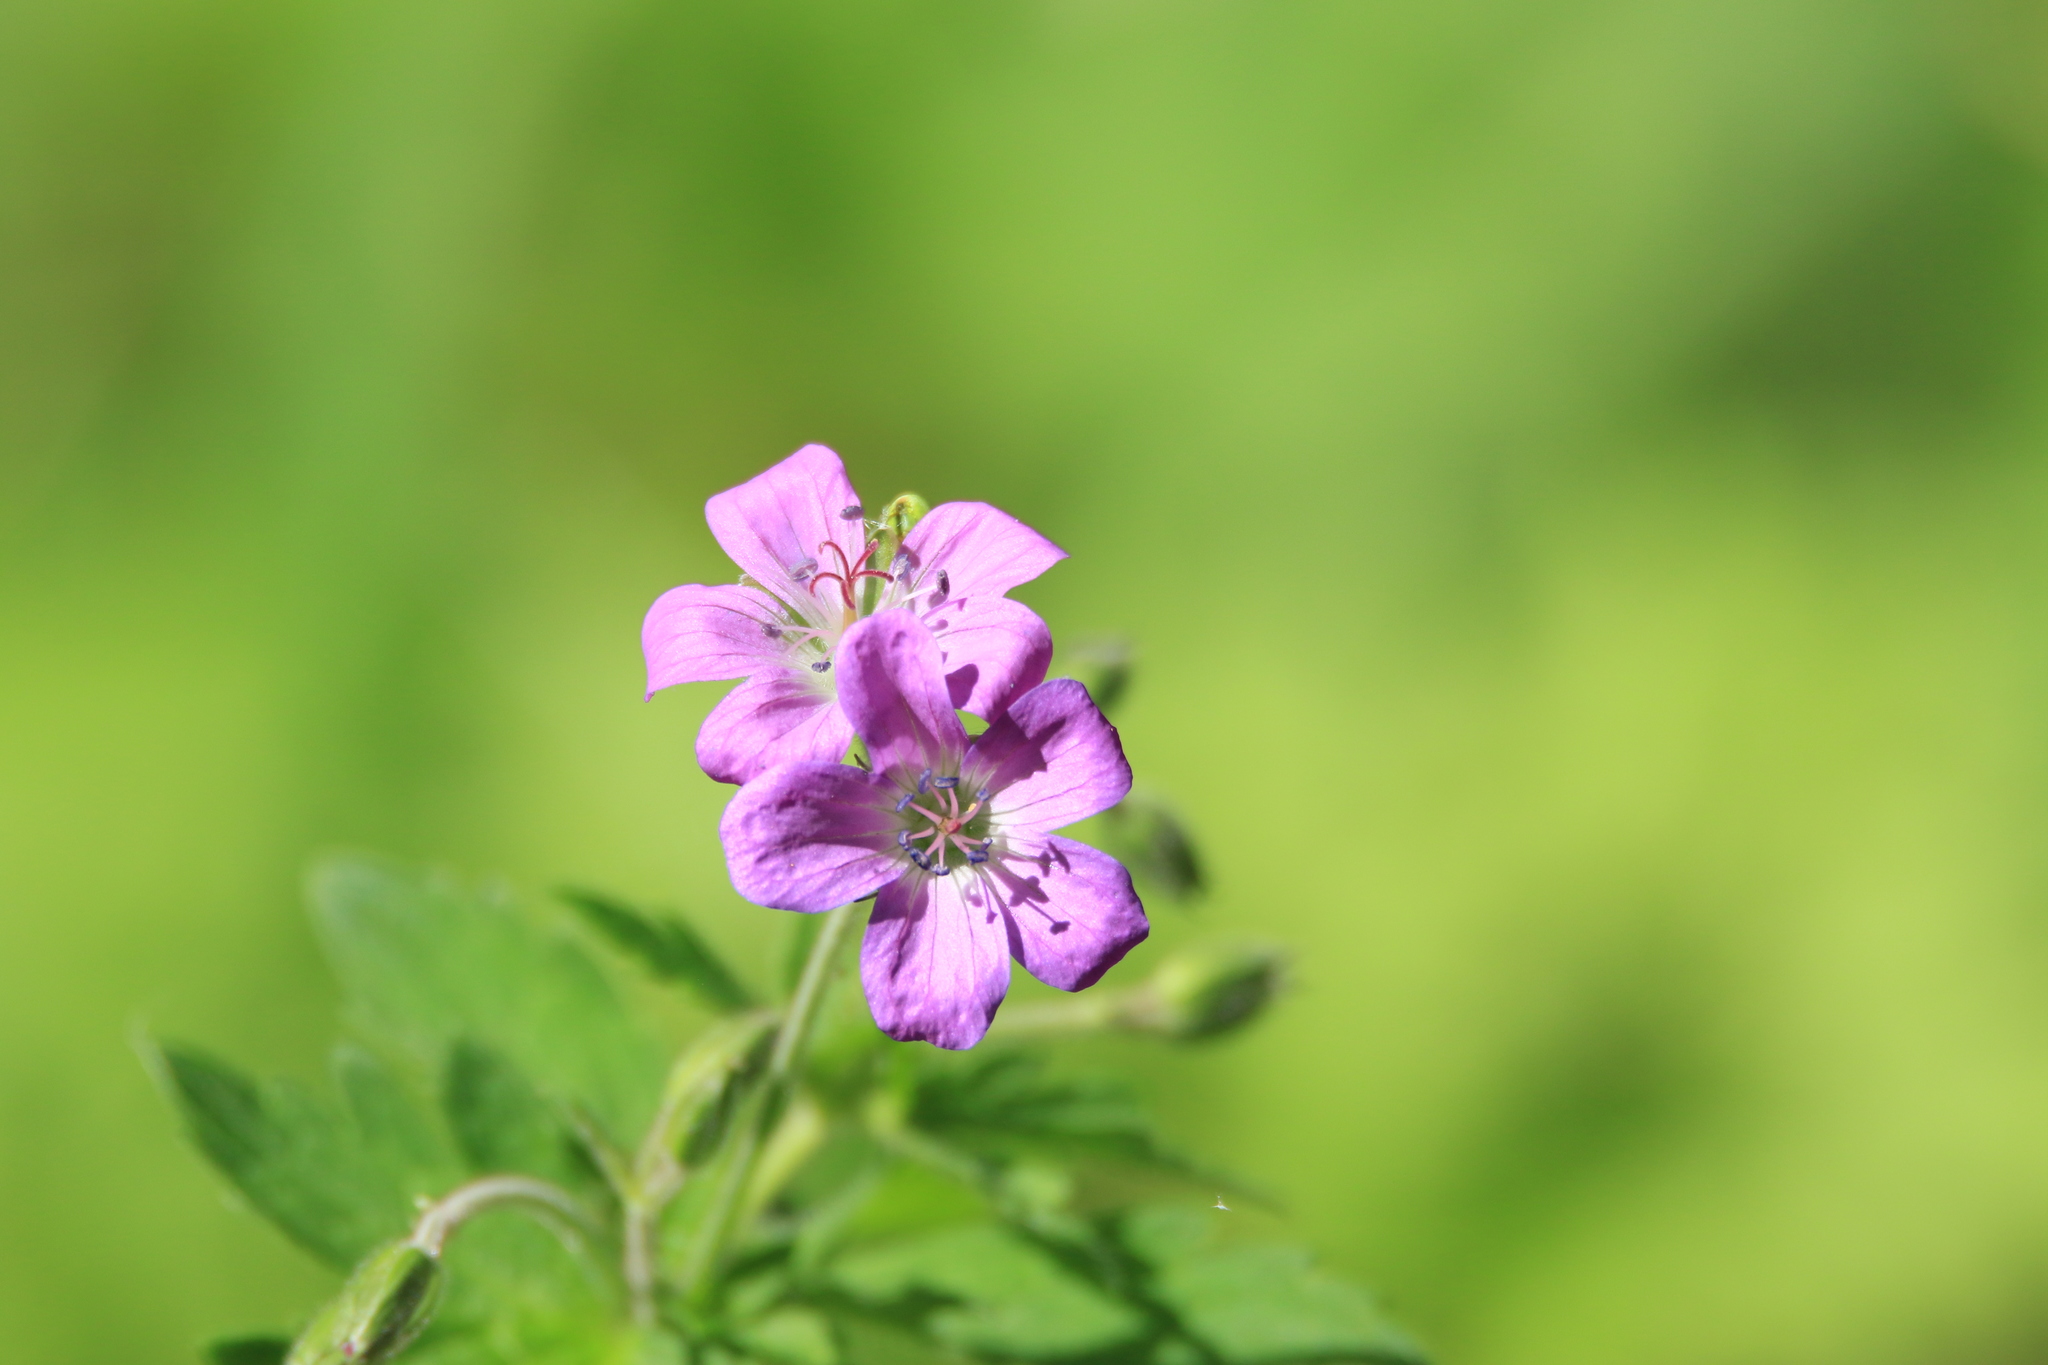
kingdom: Plantae
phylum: Tracheophyta
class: Magnoliopsida
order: Geraniales
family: Geraniaceae
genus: Geranium
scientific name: Geranium sylvaticum
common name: Wood crane's-bill
